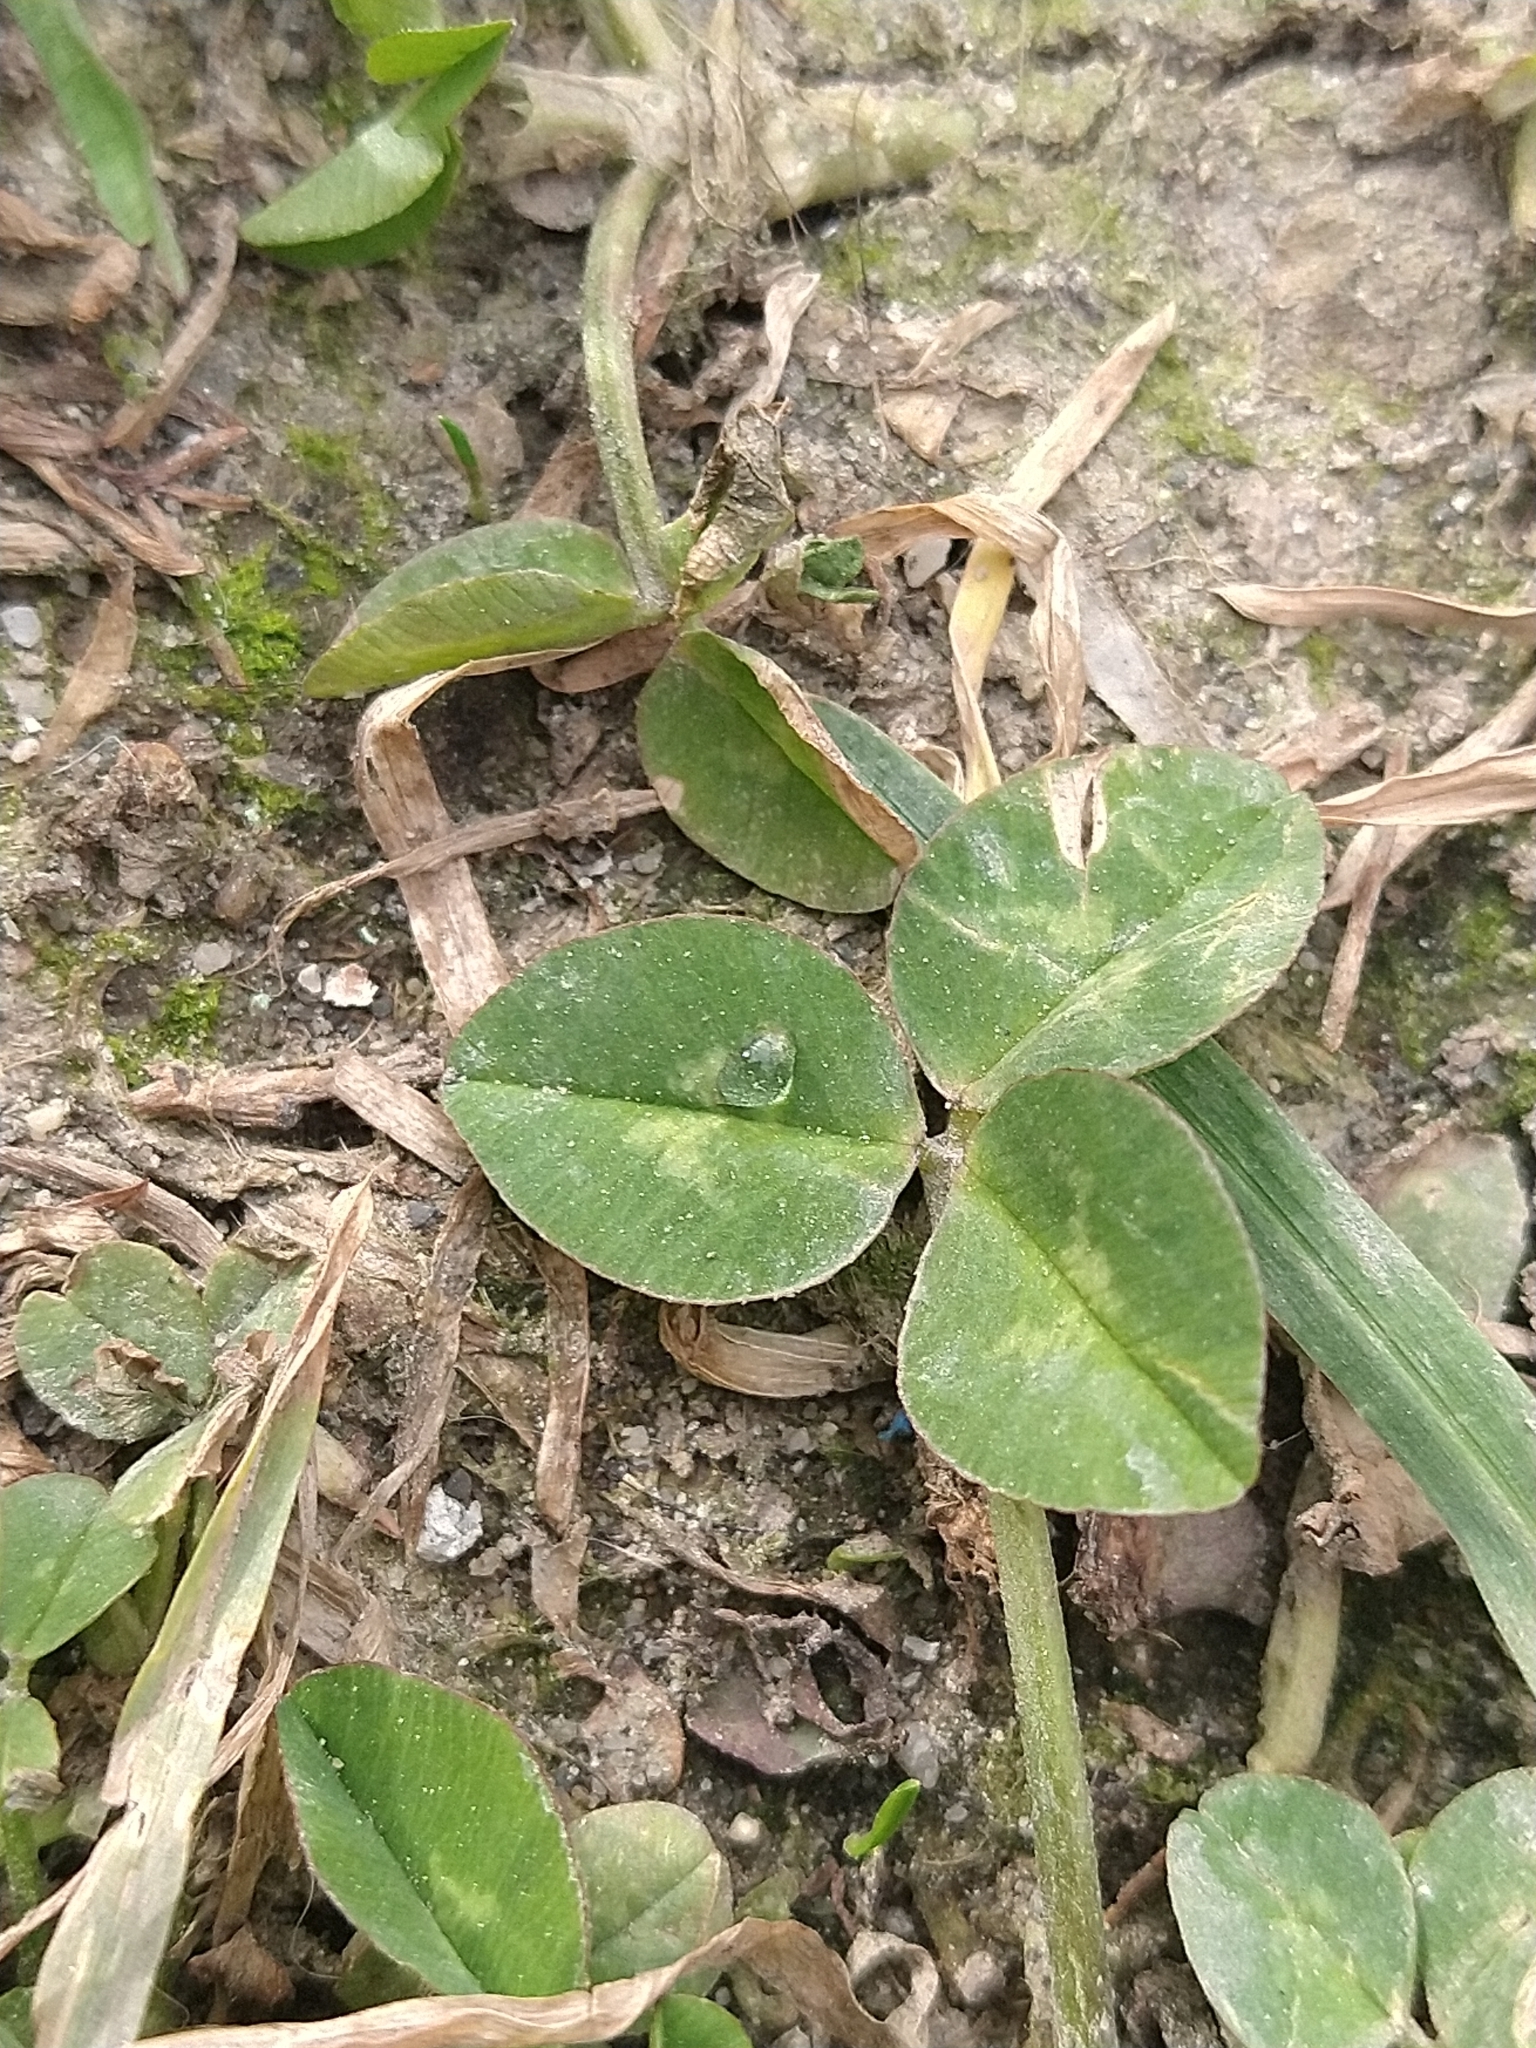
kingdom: Plantae
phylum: Tracheophyta
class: Magnoliopsida
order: Fabales
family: Fabaceae
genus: Trifolium
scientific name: Trifolium repens
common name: White clover
